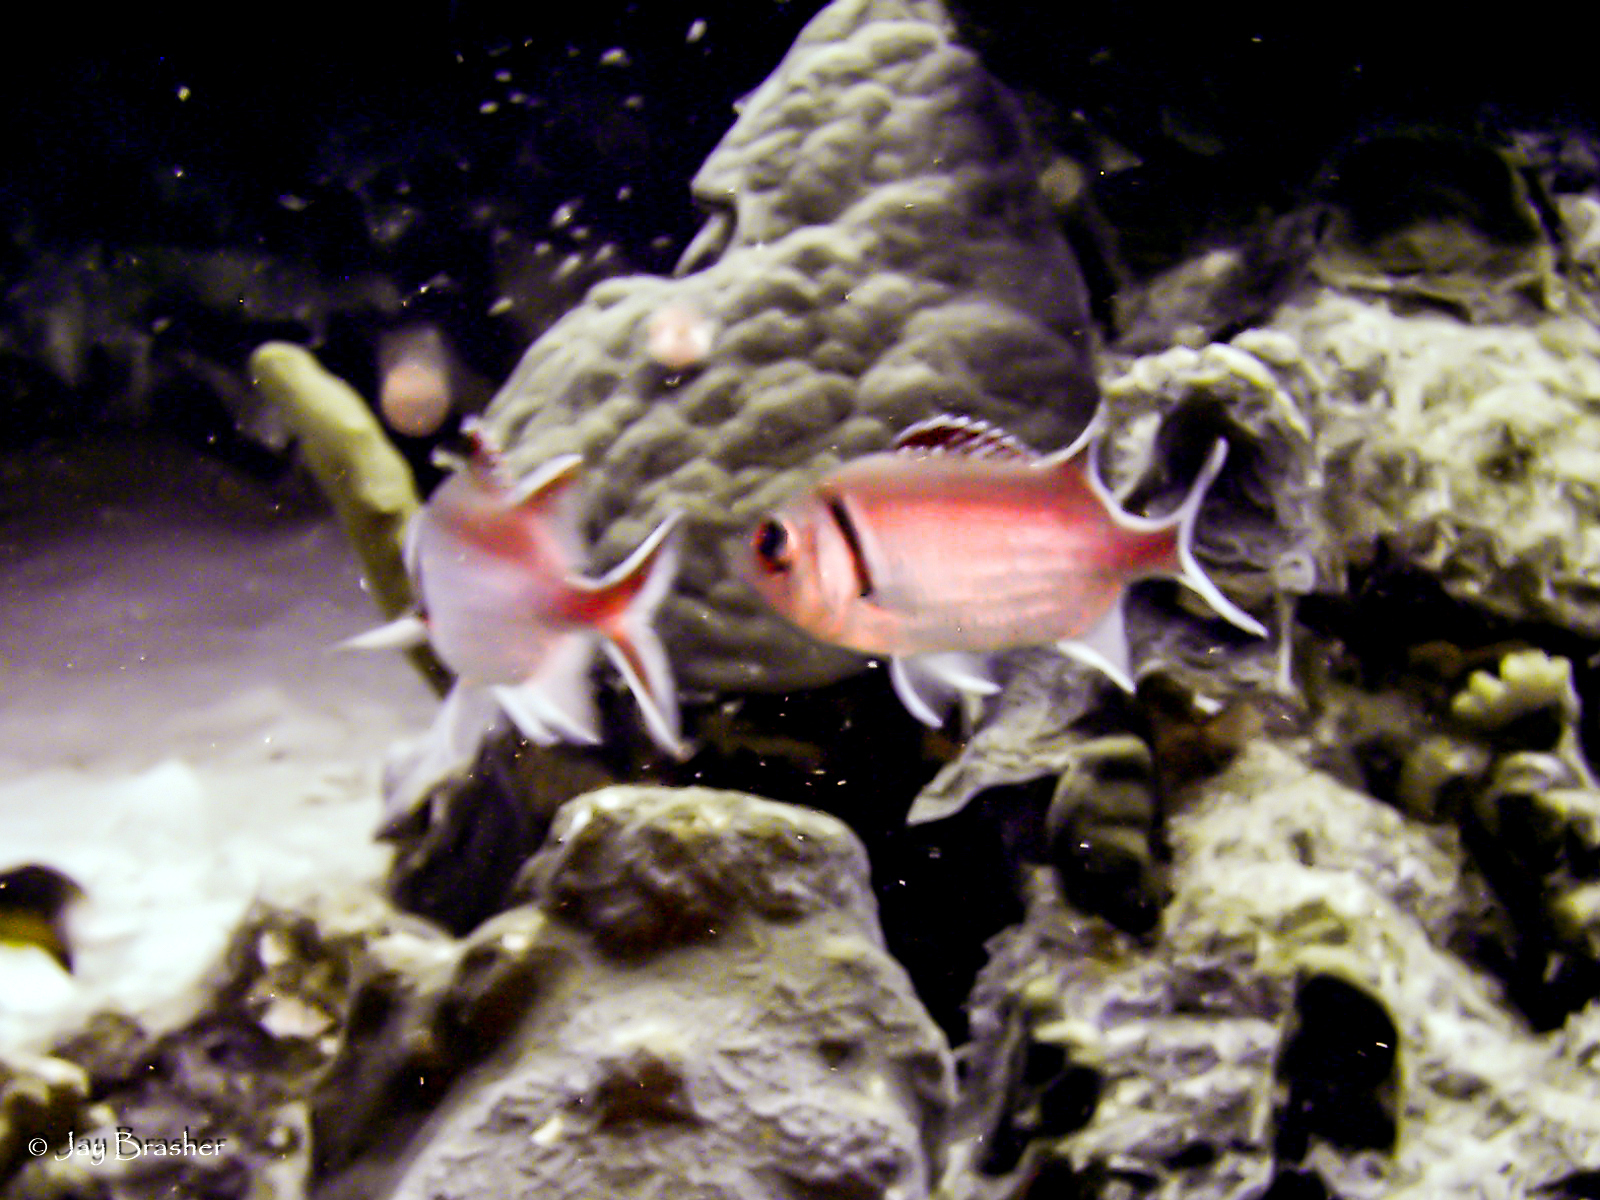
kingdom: Animalia
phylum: Chordata
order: Beryciformes
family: Holocentridae
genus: Myripristis
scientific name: Myripristis jacobus
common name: Blackbar soldierfish
